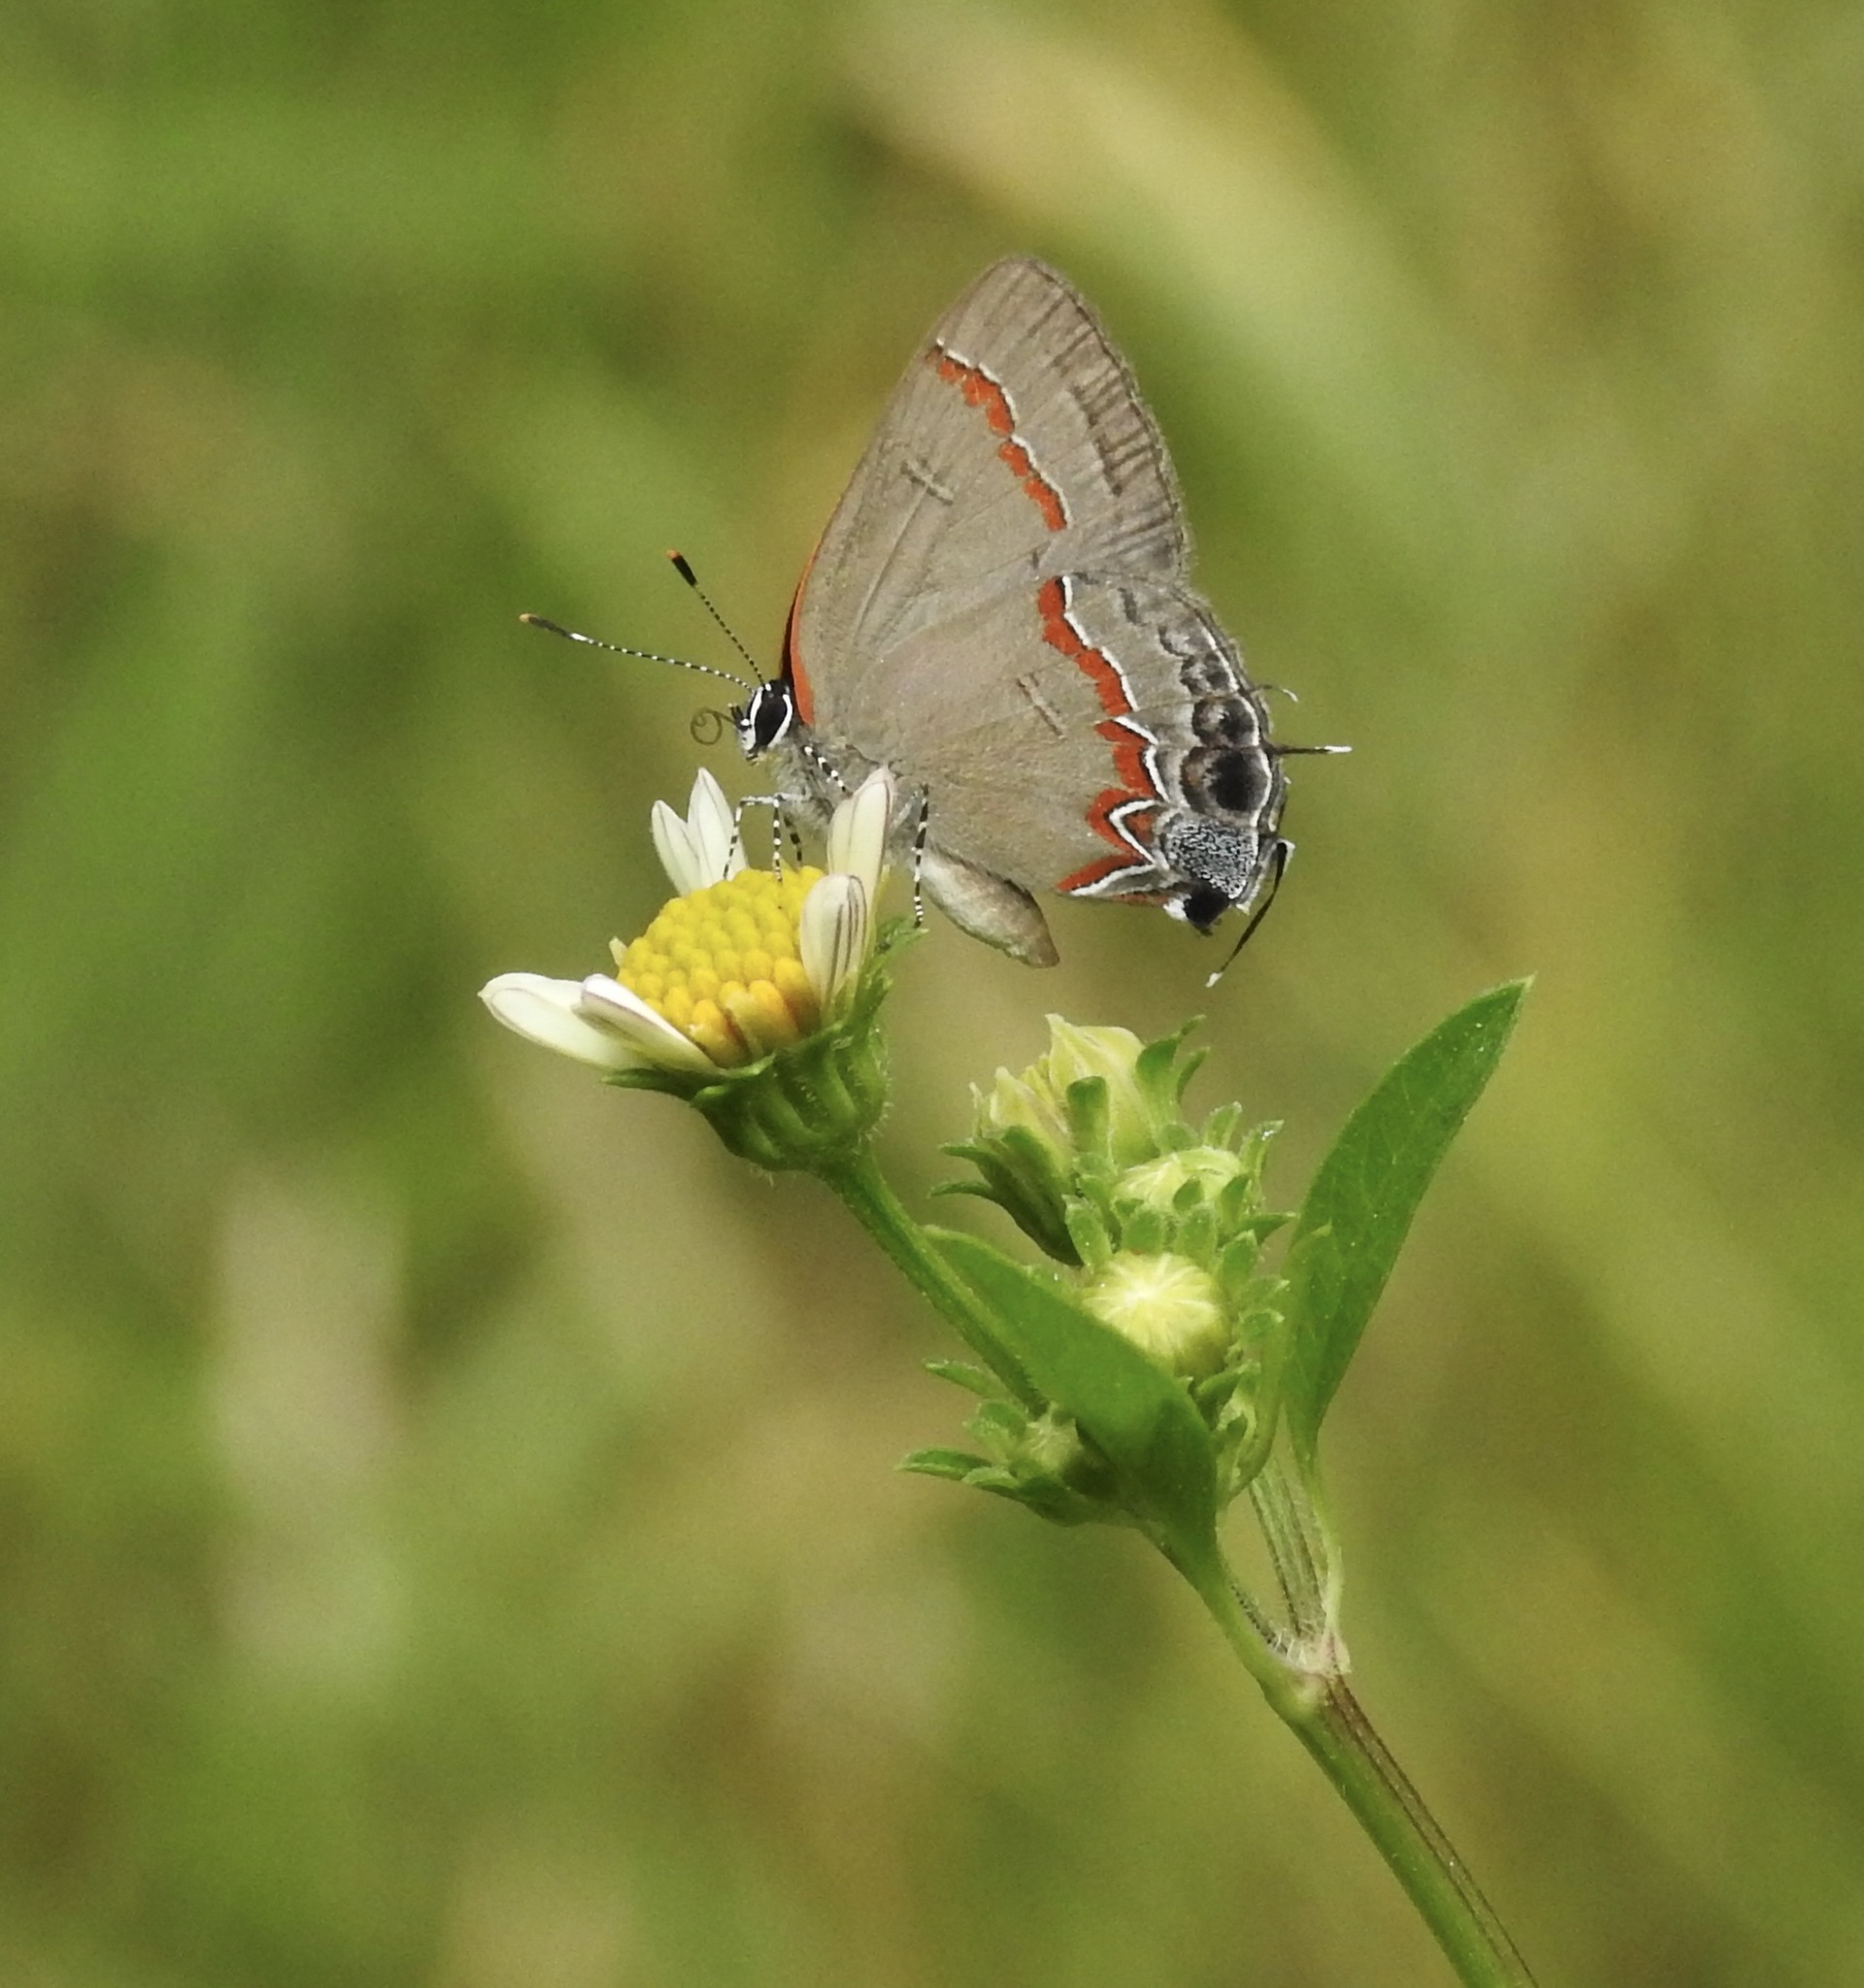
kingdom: Animalia
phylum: Arthropoda
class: Insecta
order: Lepidoptera
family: Lycaenidae
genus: Calycopis
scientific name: Calycopis cecrops
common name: Red-banded hairstreak
